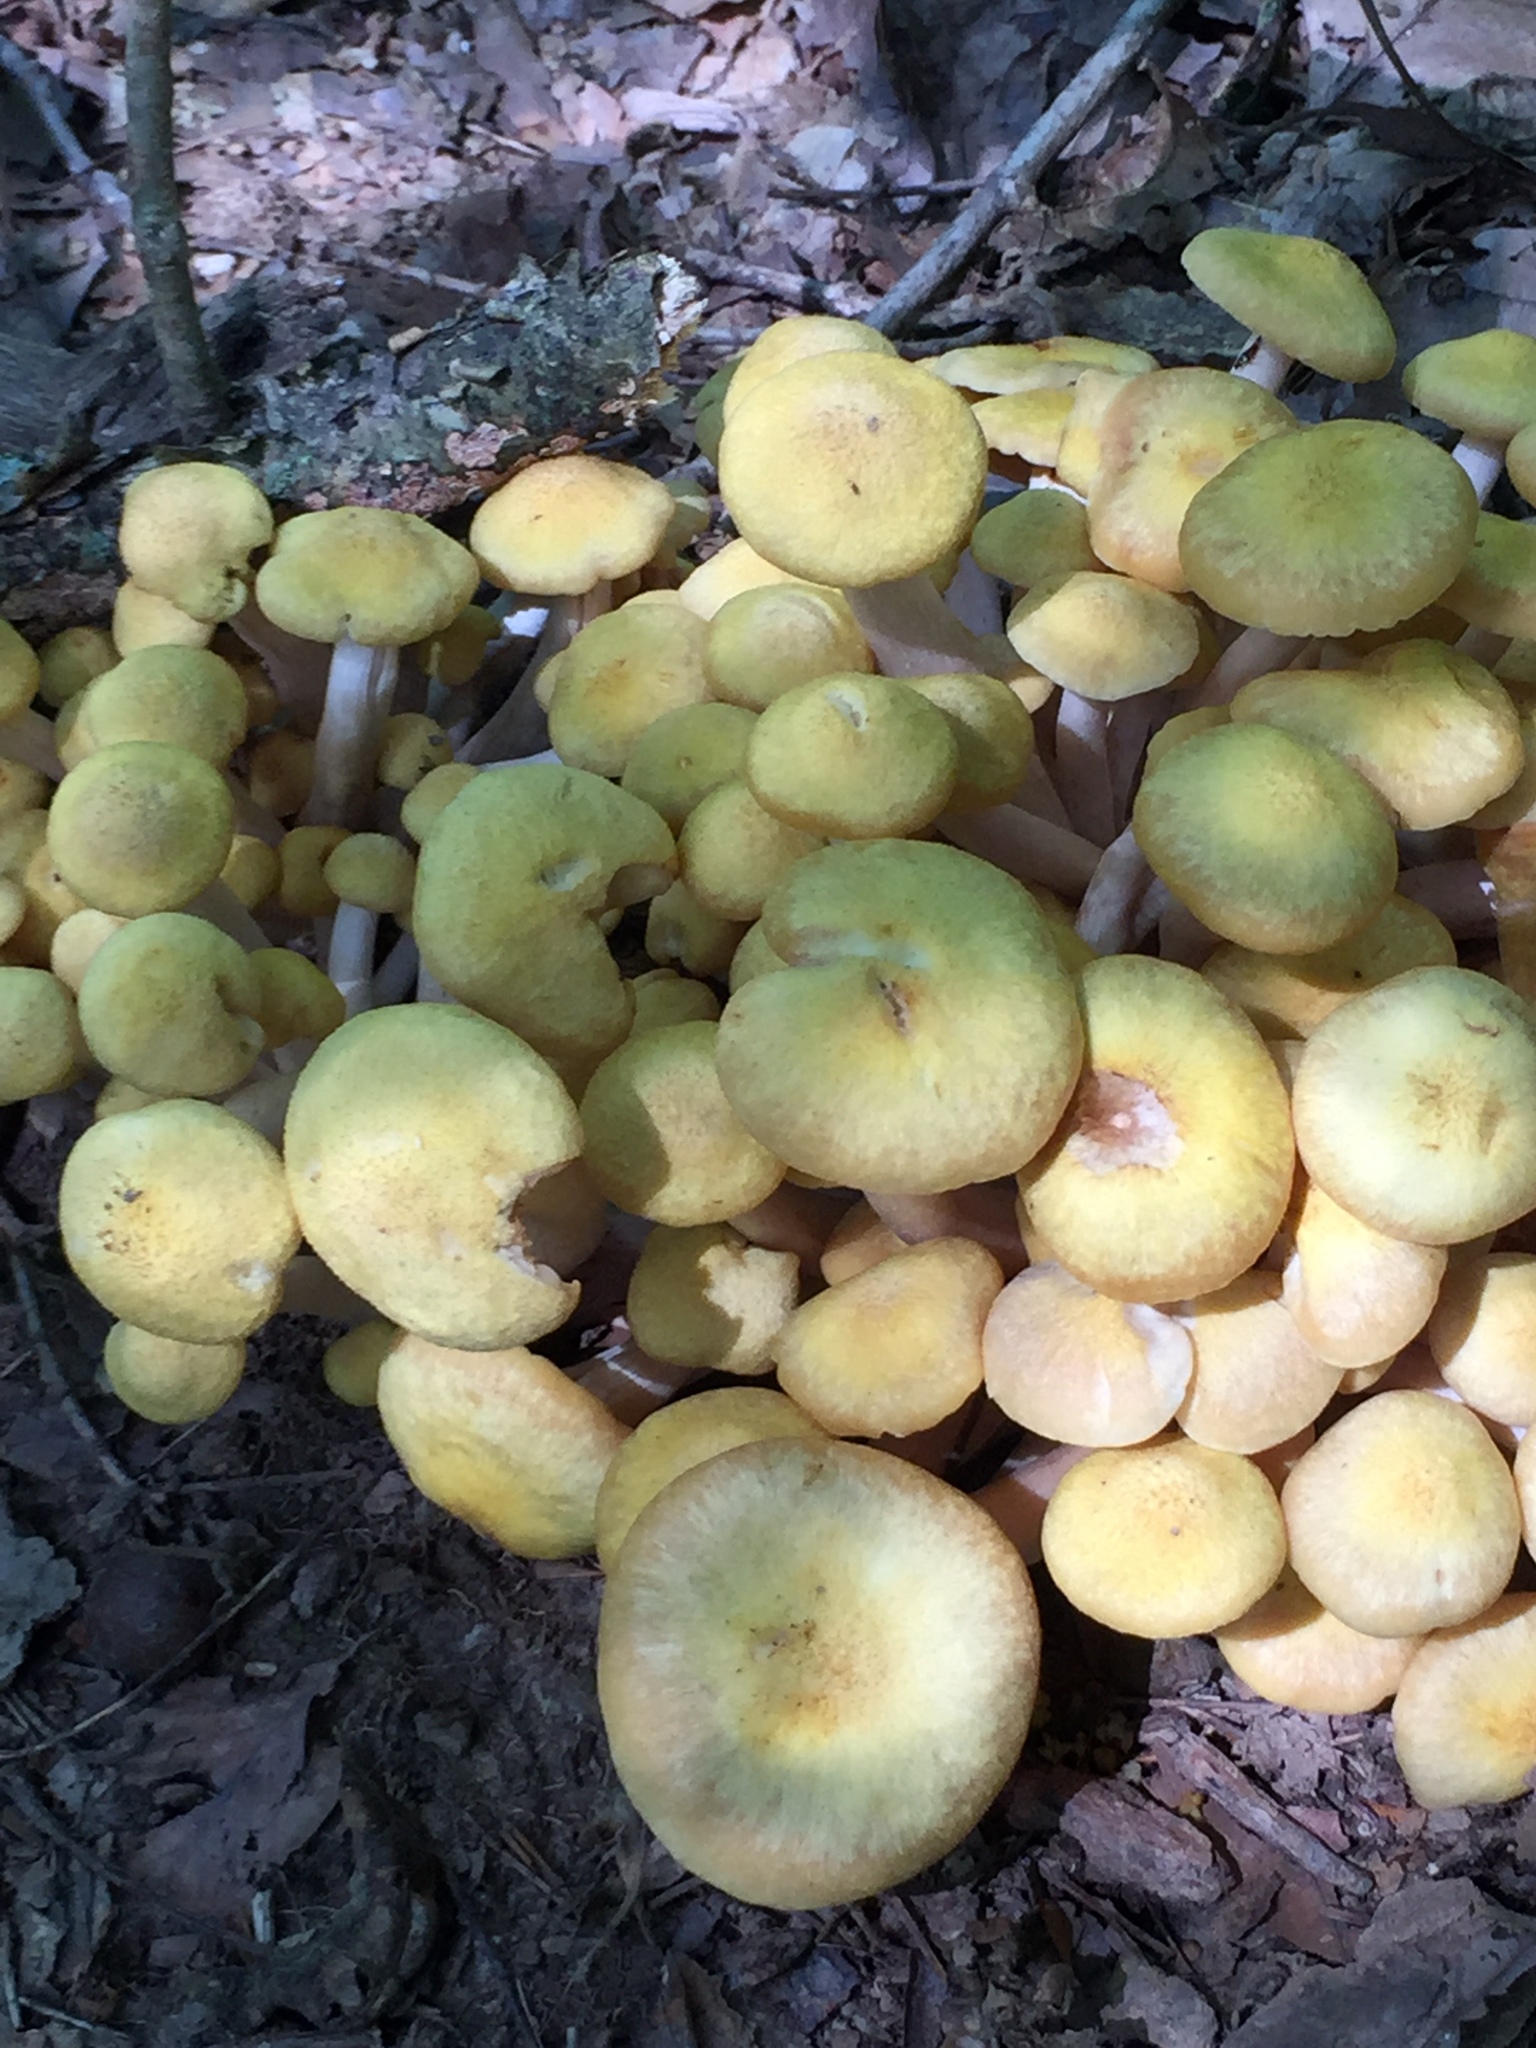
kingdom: Fungi
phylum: Basidiomycota
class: Agaricomycetes
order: Agaricales
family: Physalacriaceae
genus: Desarmillaria
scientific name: Desarmillaria caespitosa
